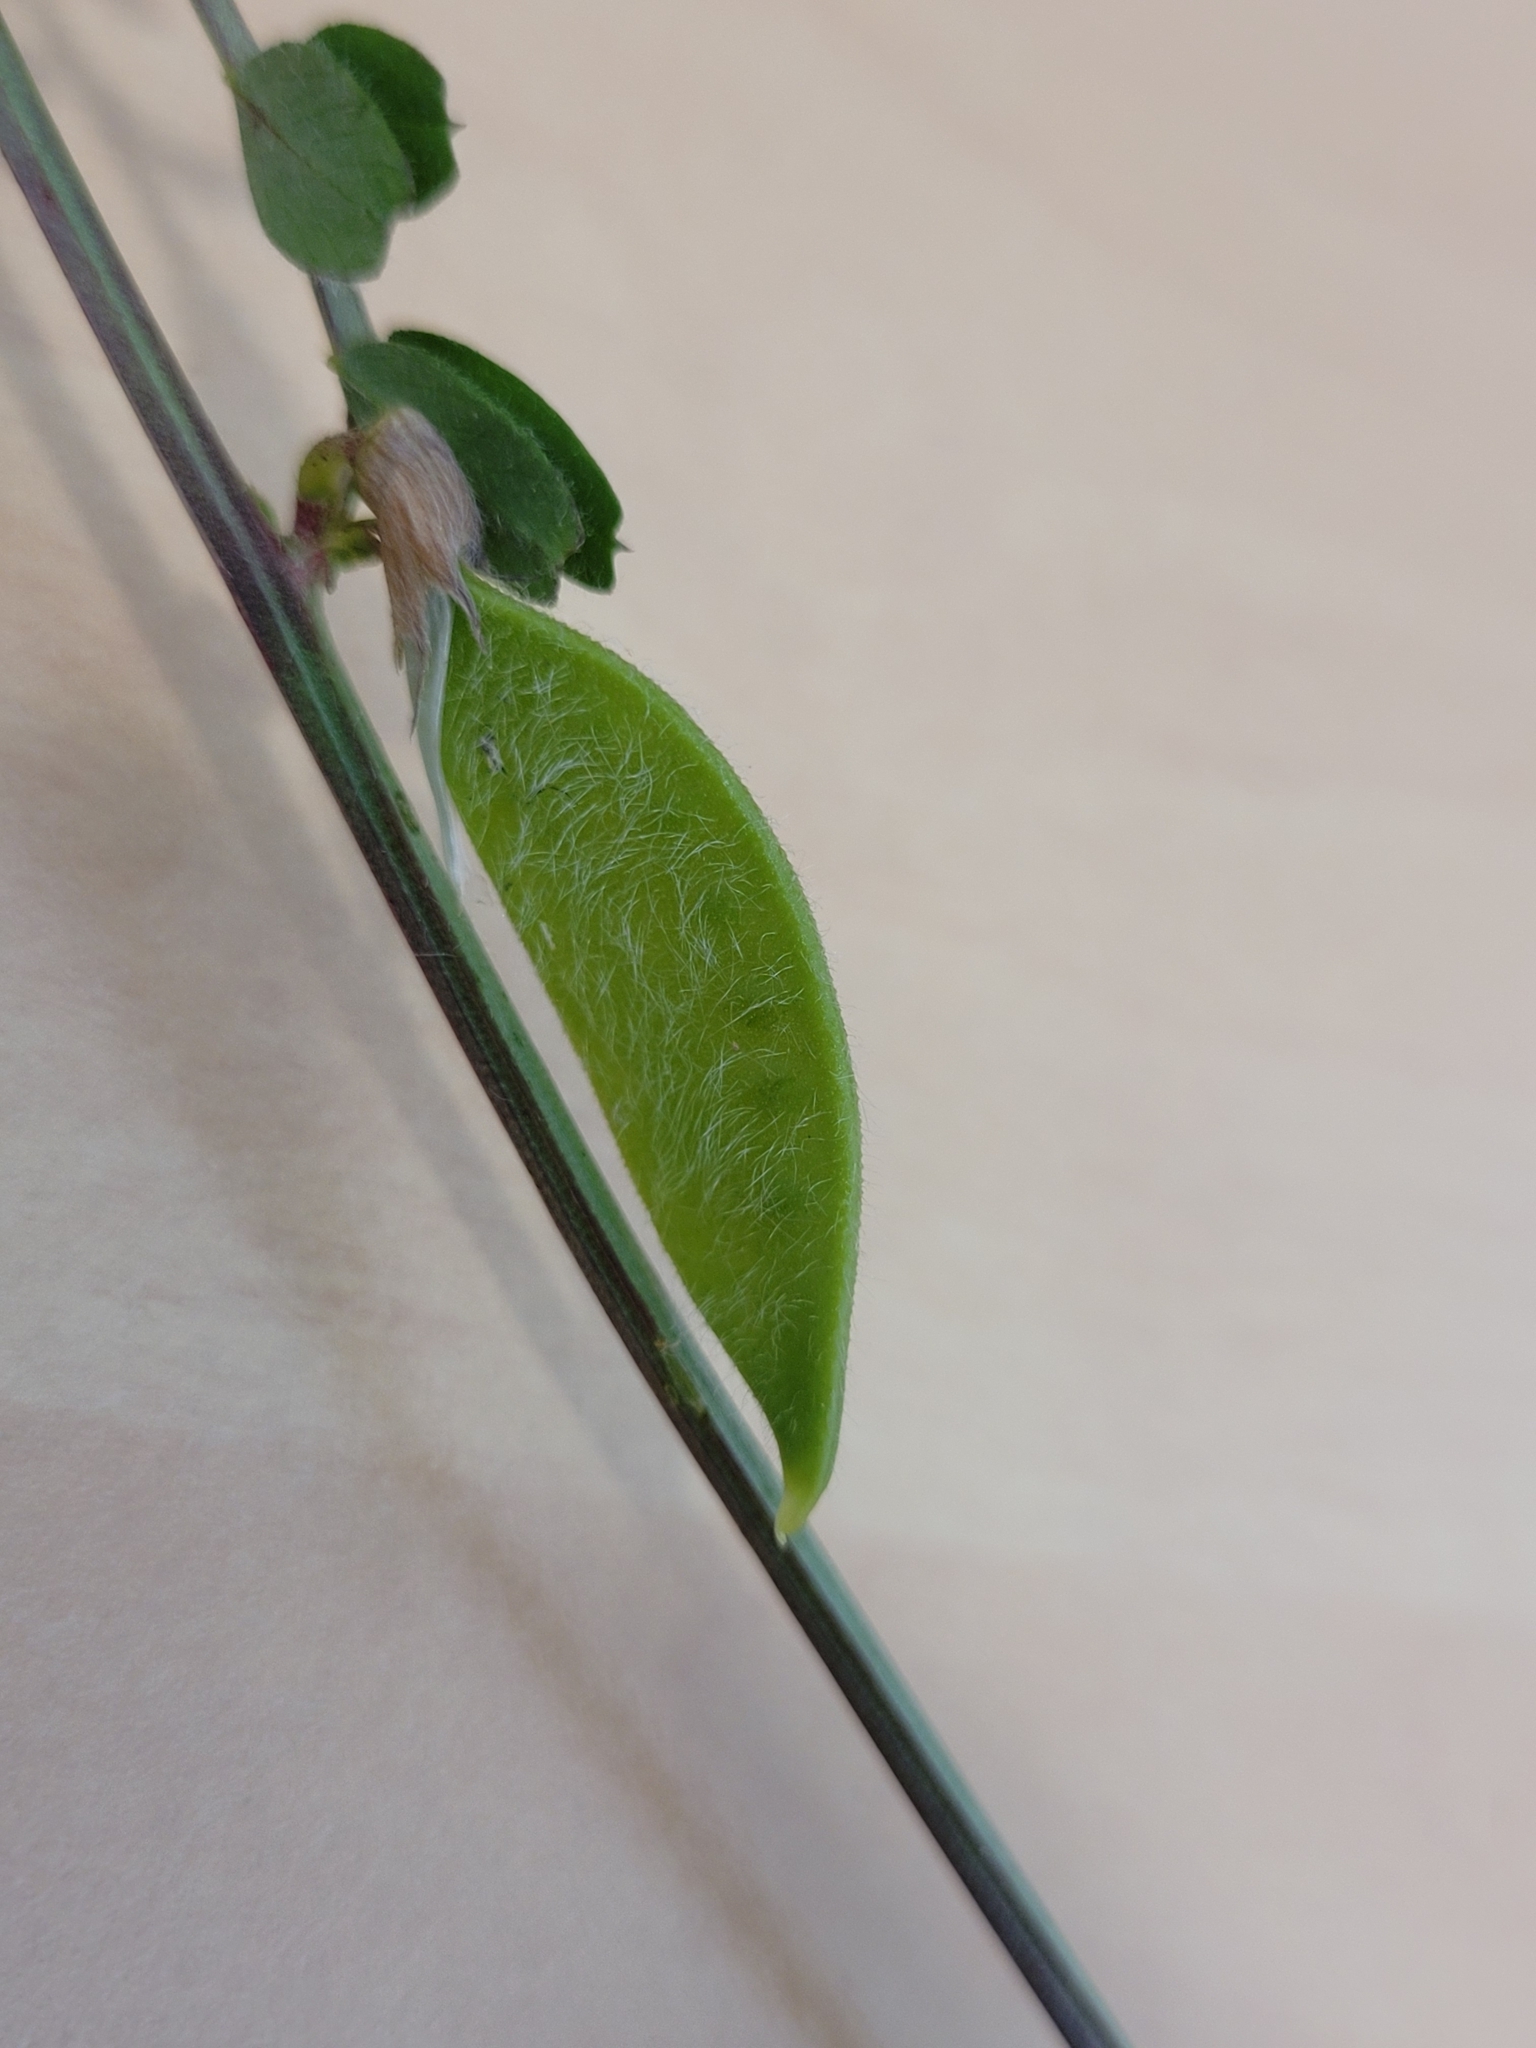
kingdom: Plantae
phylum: Tracheophyta
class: Magnoliopsida
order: Fabales
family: Fabaceae
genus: Vicia
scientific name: Vicia hybrida
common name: Hairy yellow vetch
